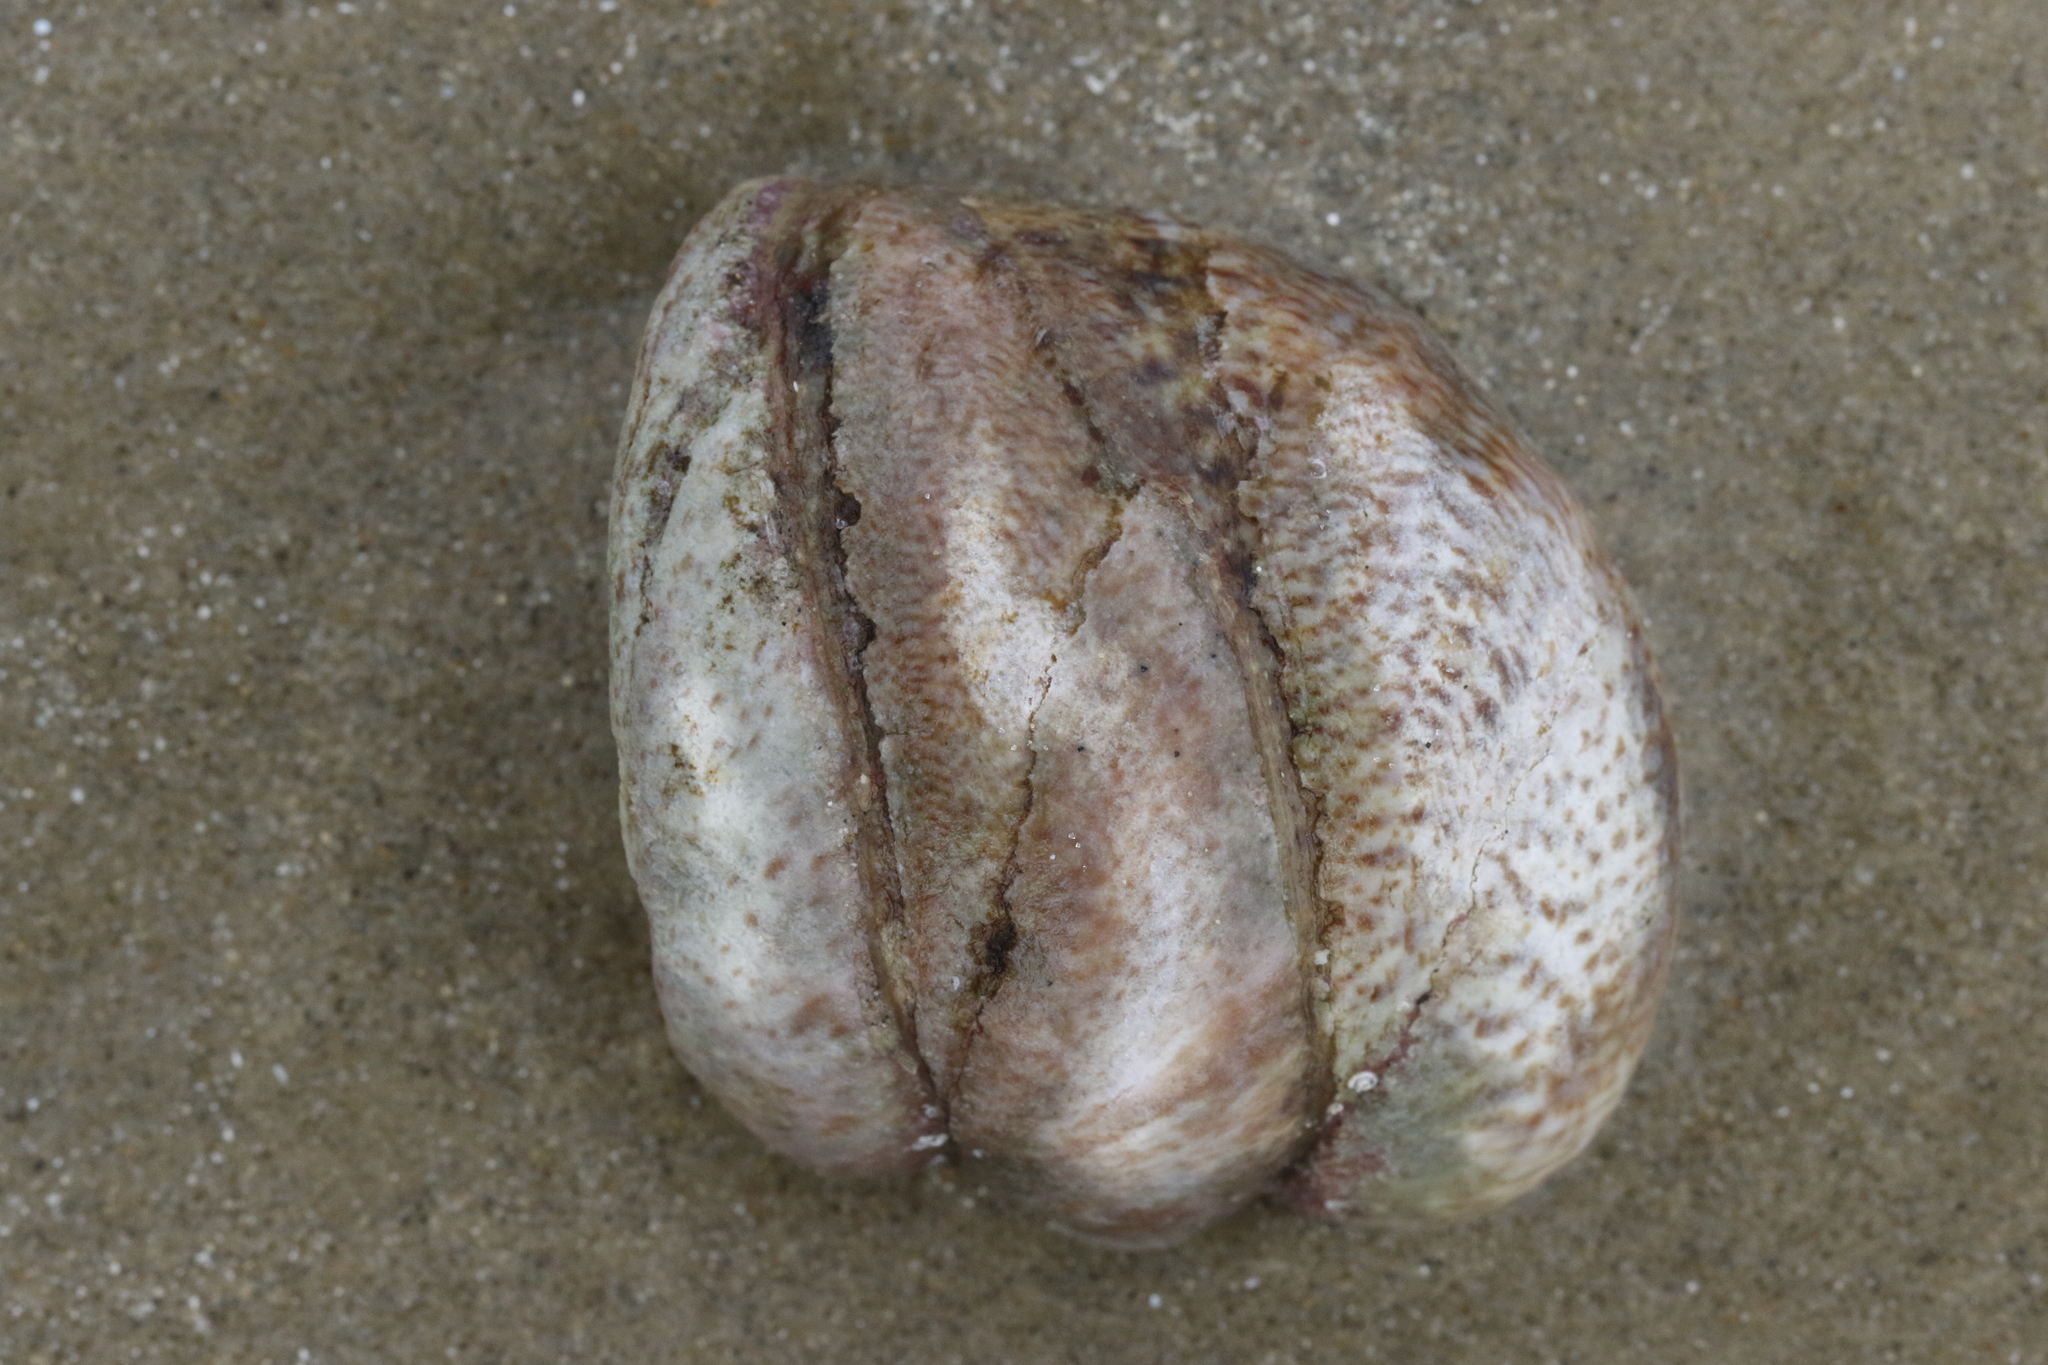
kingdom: Animalia
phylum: Mollusca
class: Gastropoda
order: Littorinimorpha
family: Calyptraeidae
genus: Crepidula
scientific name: Crepidula fornicata
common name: Slipper limpet
